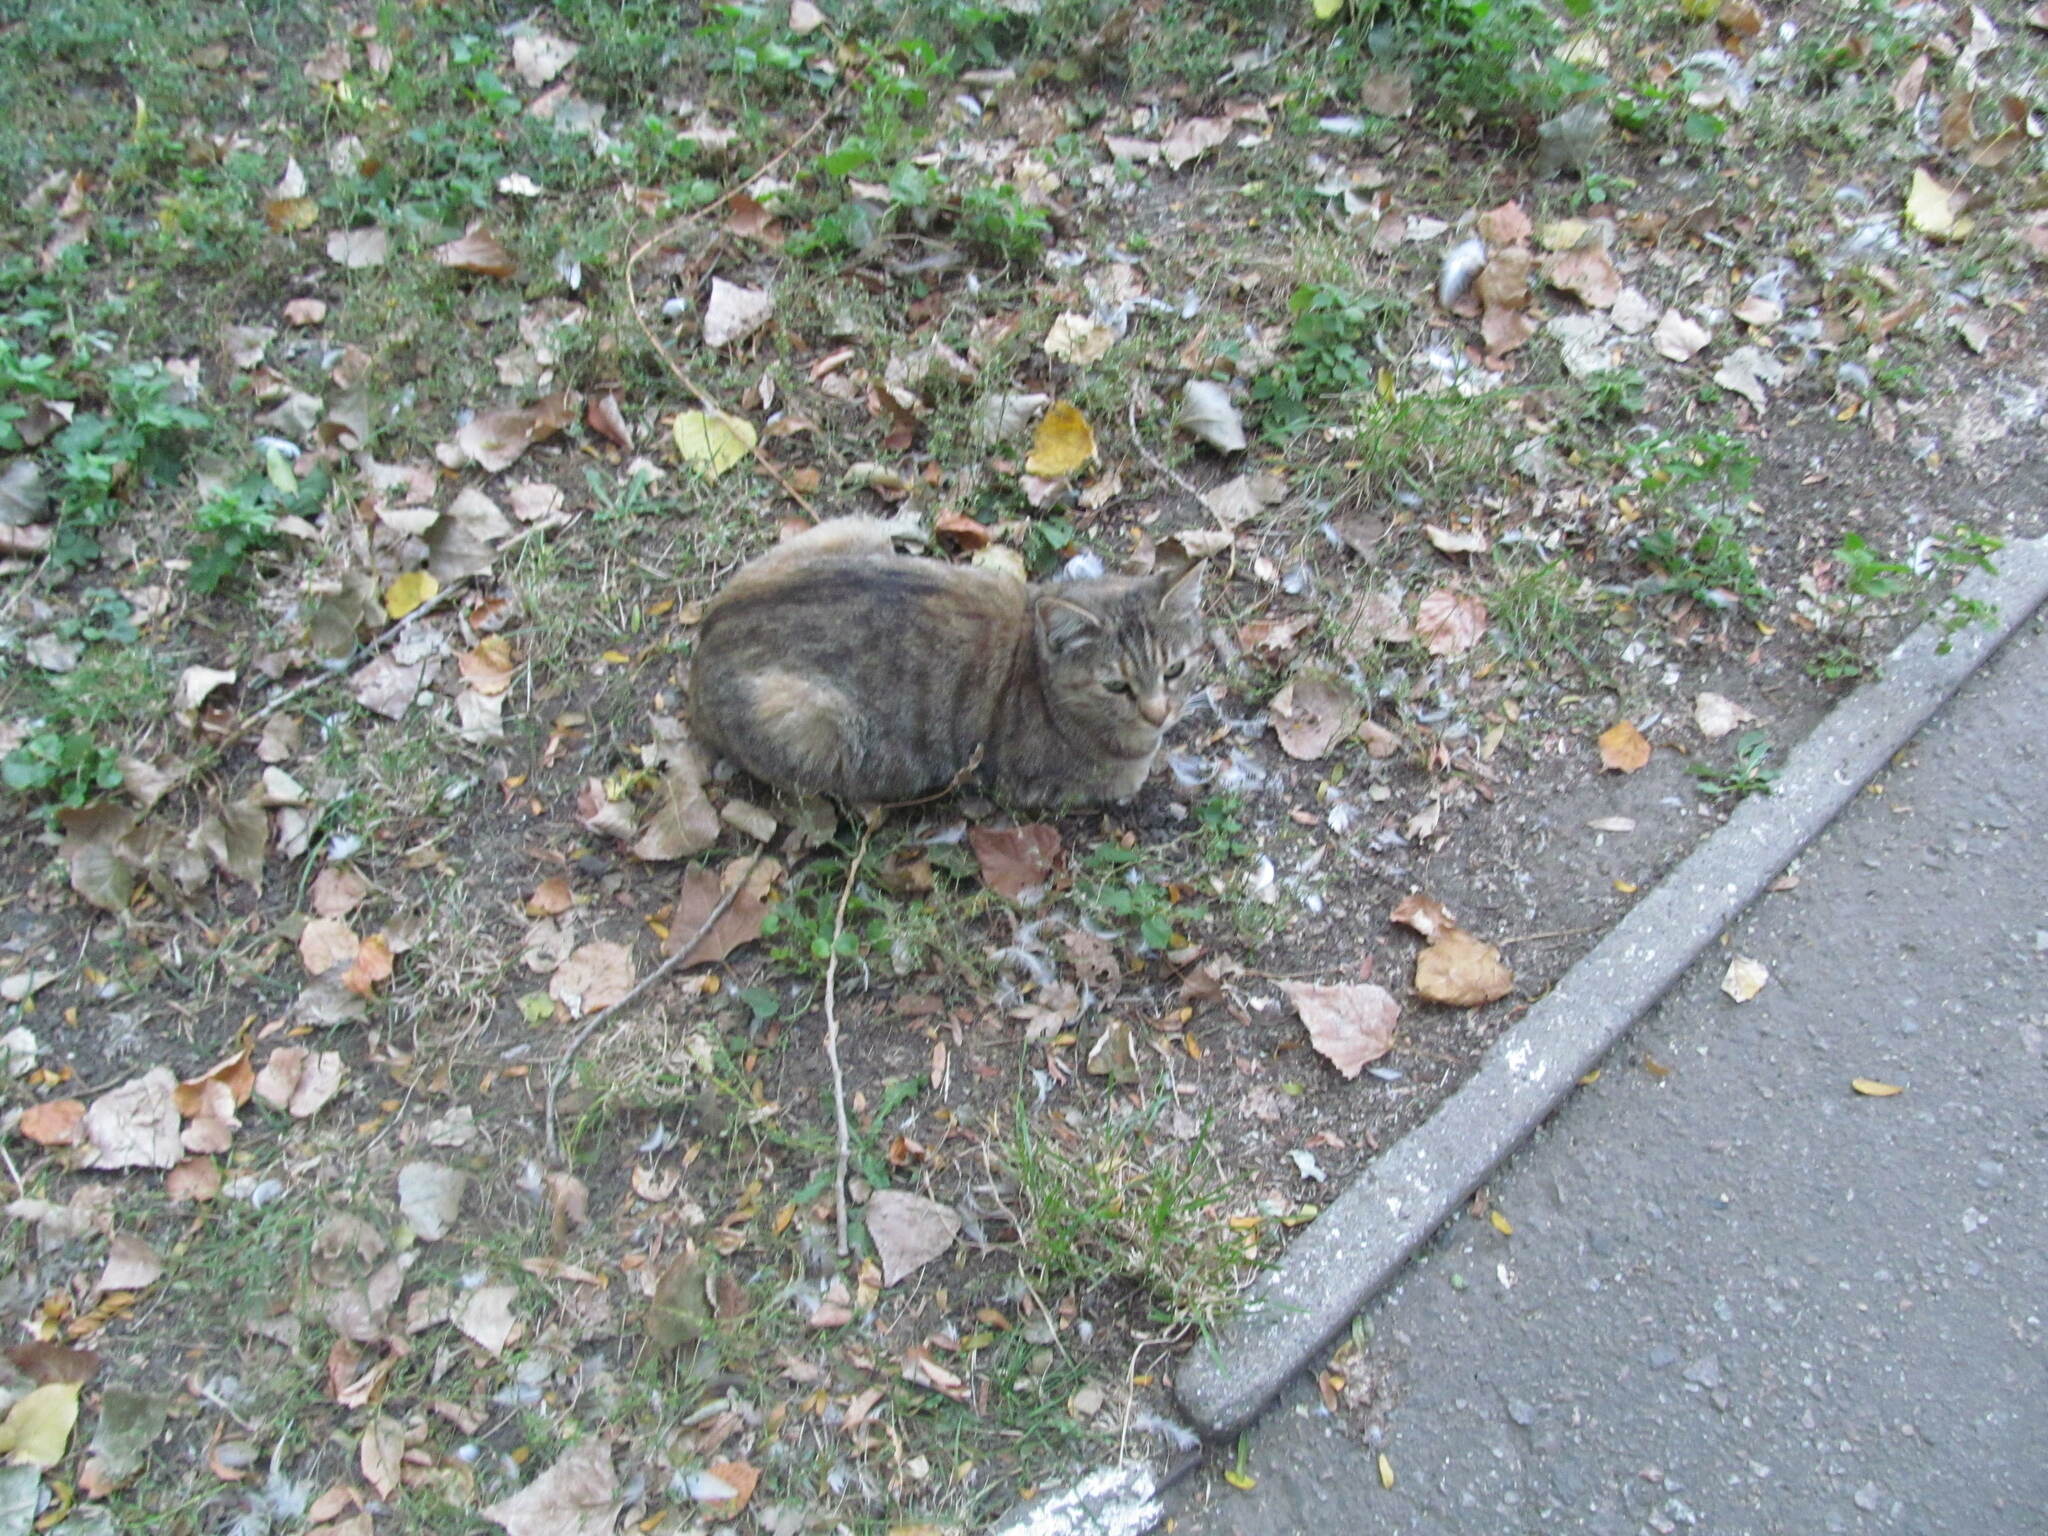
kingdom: Animalia
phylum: Chordata
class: Mammalia
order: Carnivora
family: Felidae
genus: Felis
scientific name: Felis catus
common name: Domestic cat
